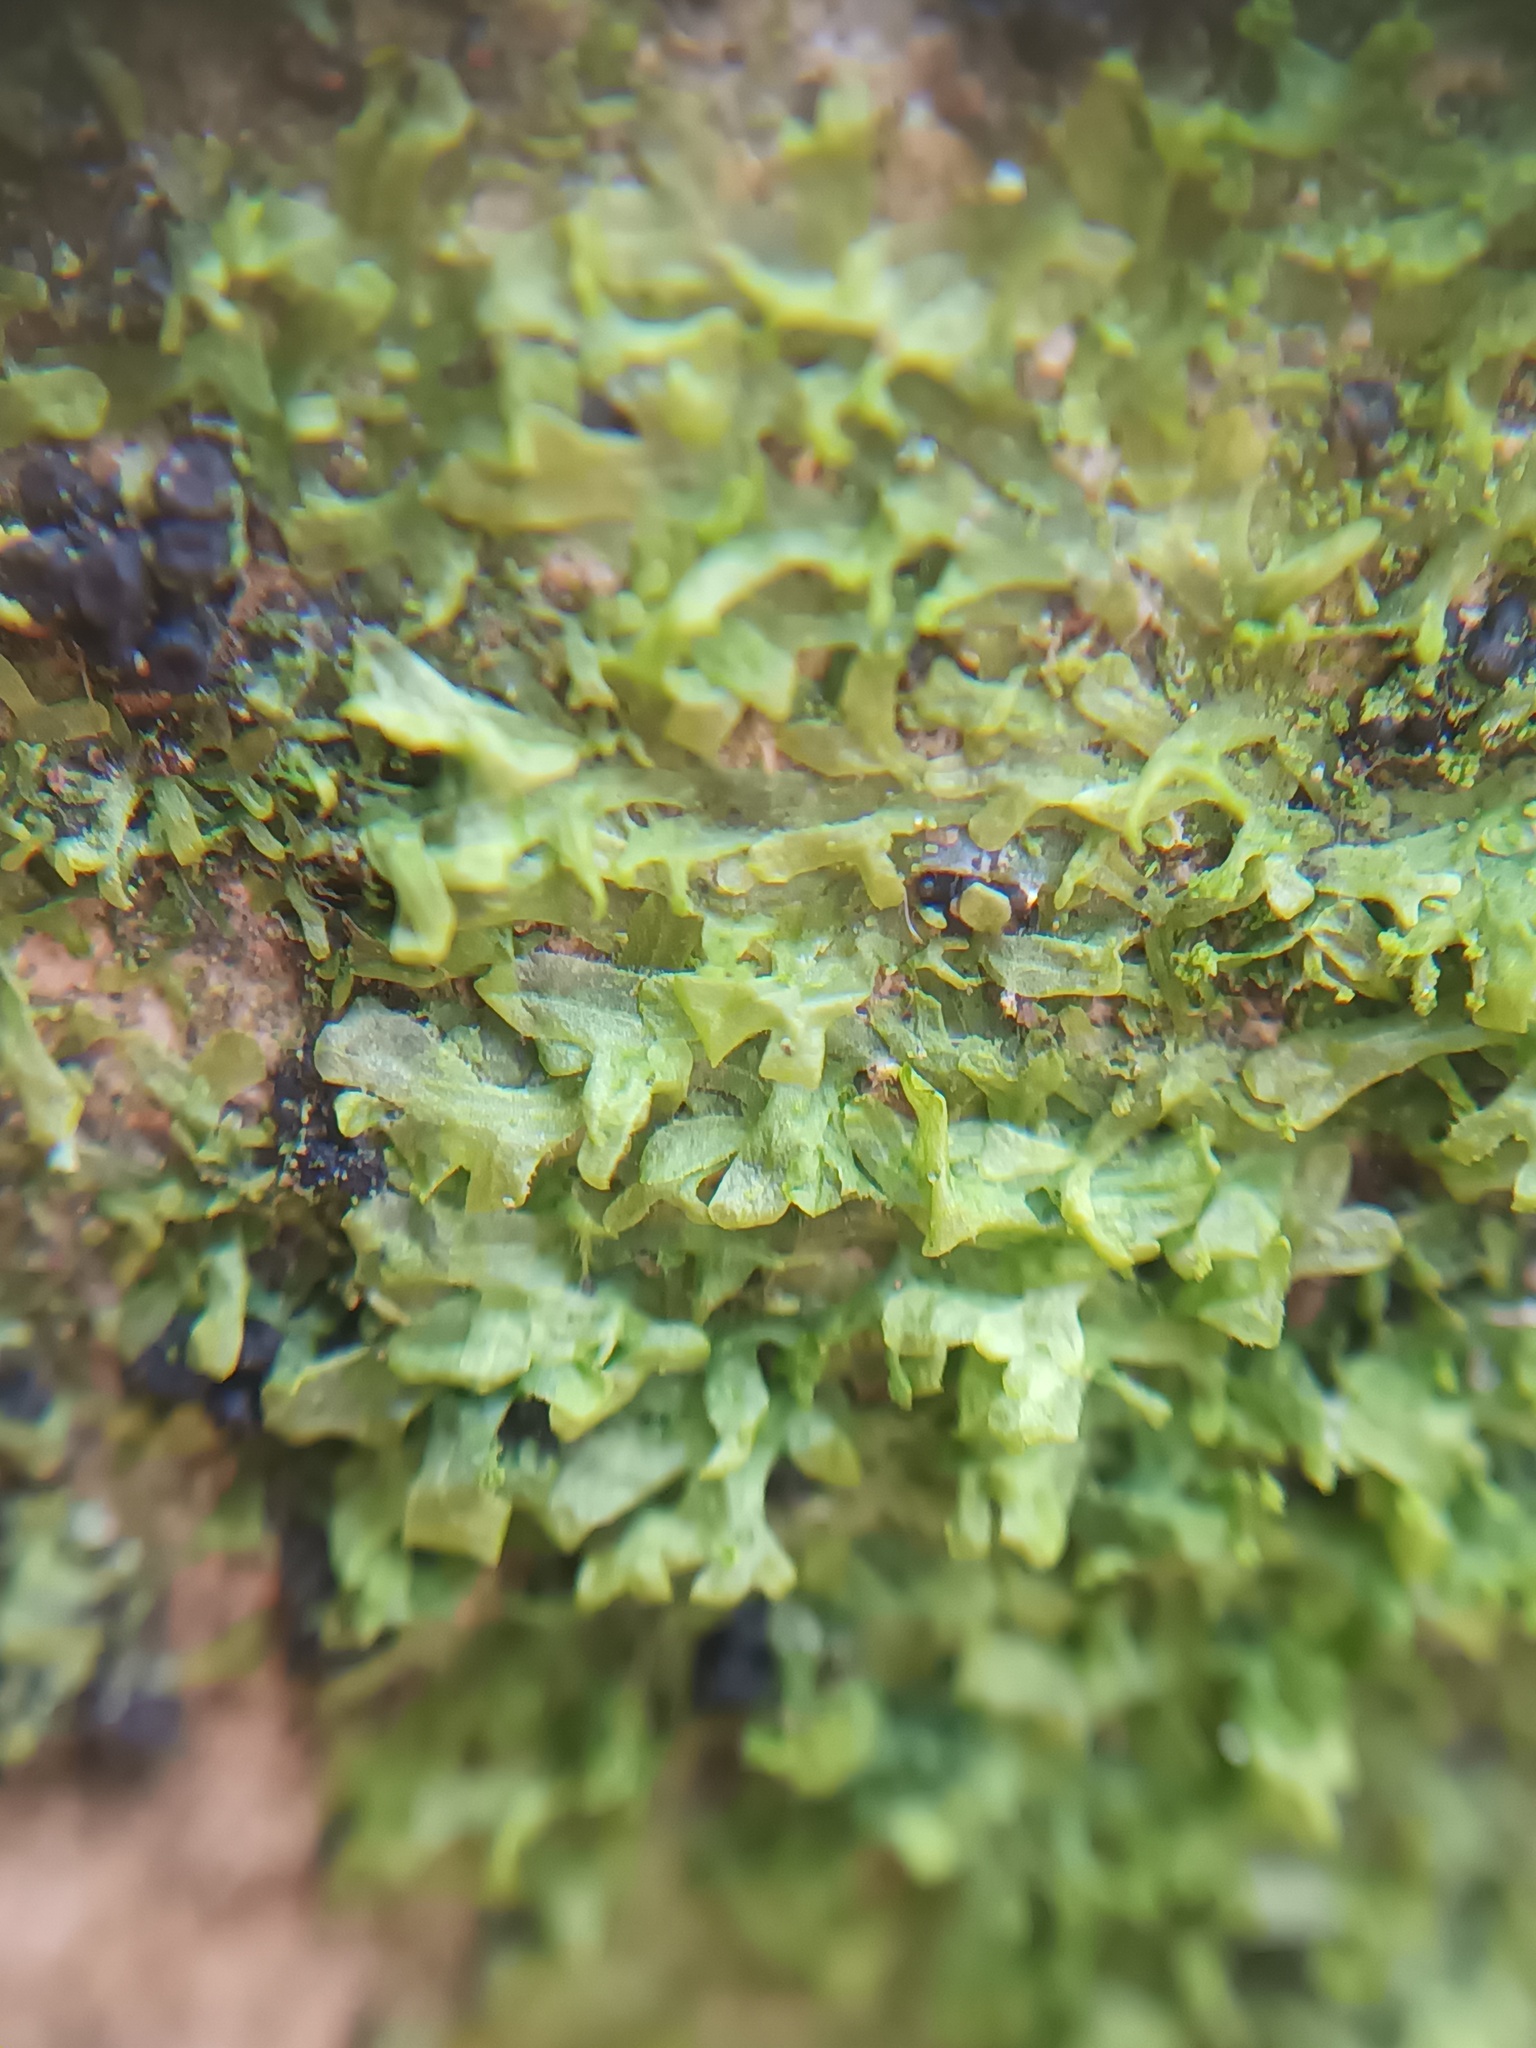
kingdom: Plantae
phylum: Marchantiophyta
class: Jungermanniopsida
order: Metzgeriales
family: Metzgeriaceae
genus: Metzgeria
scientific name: Metzgeria furcata
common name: Forked veilwort
